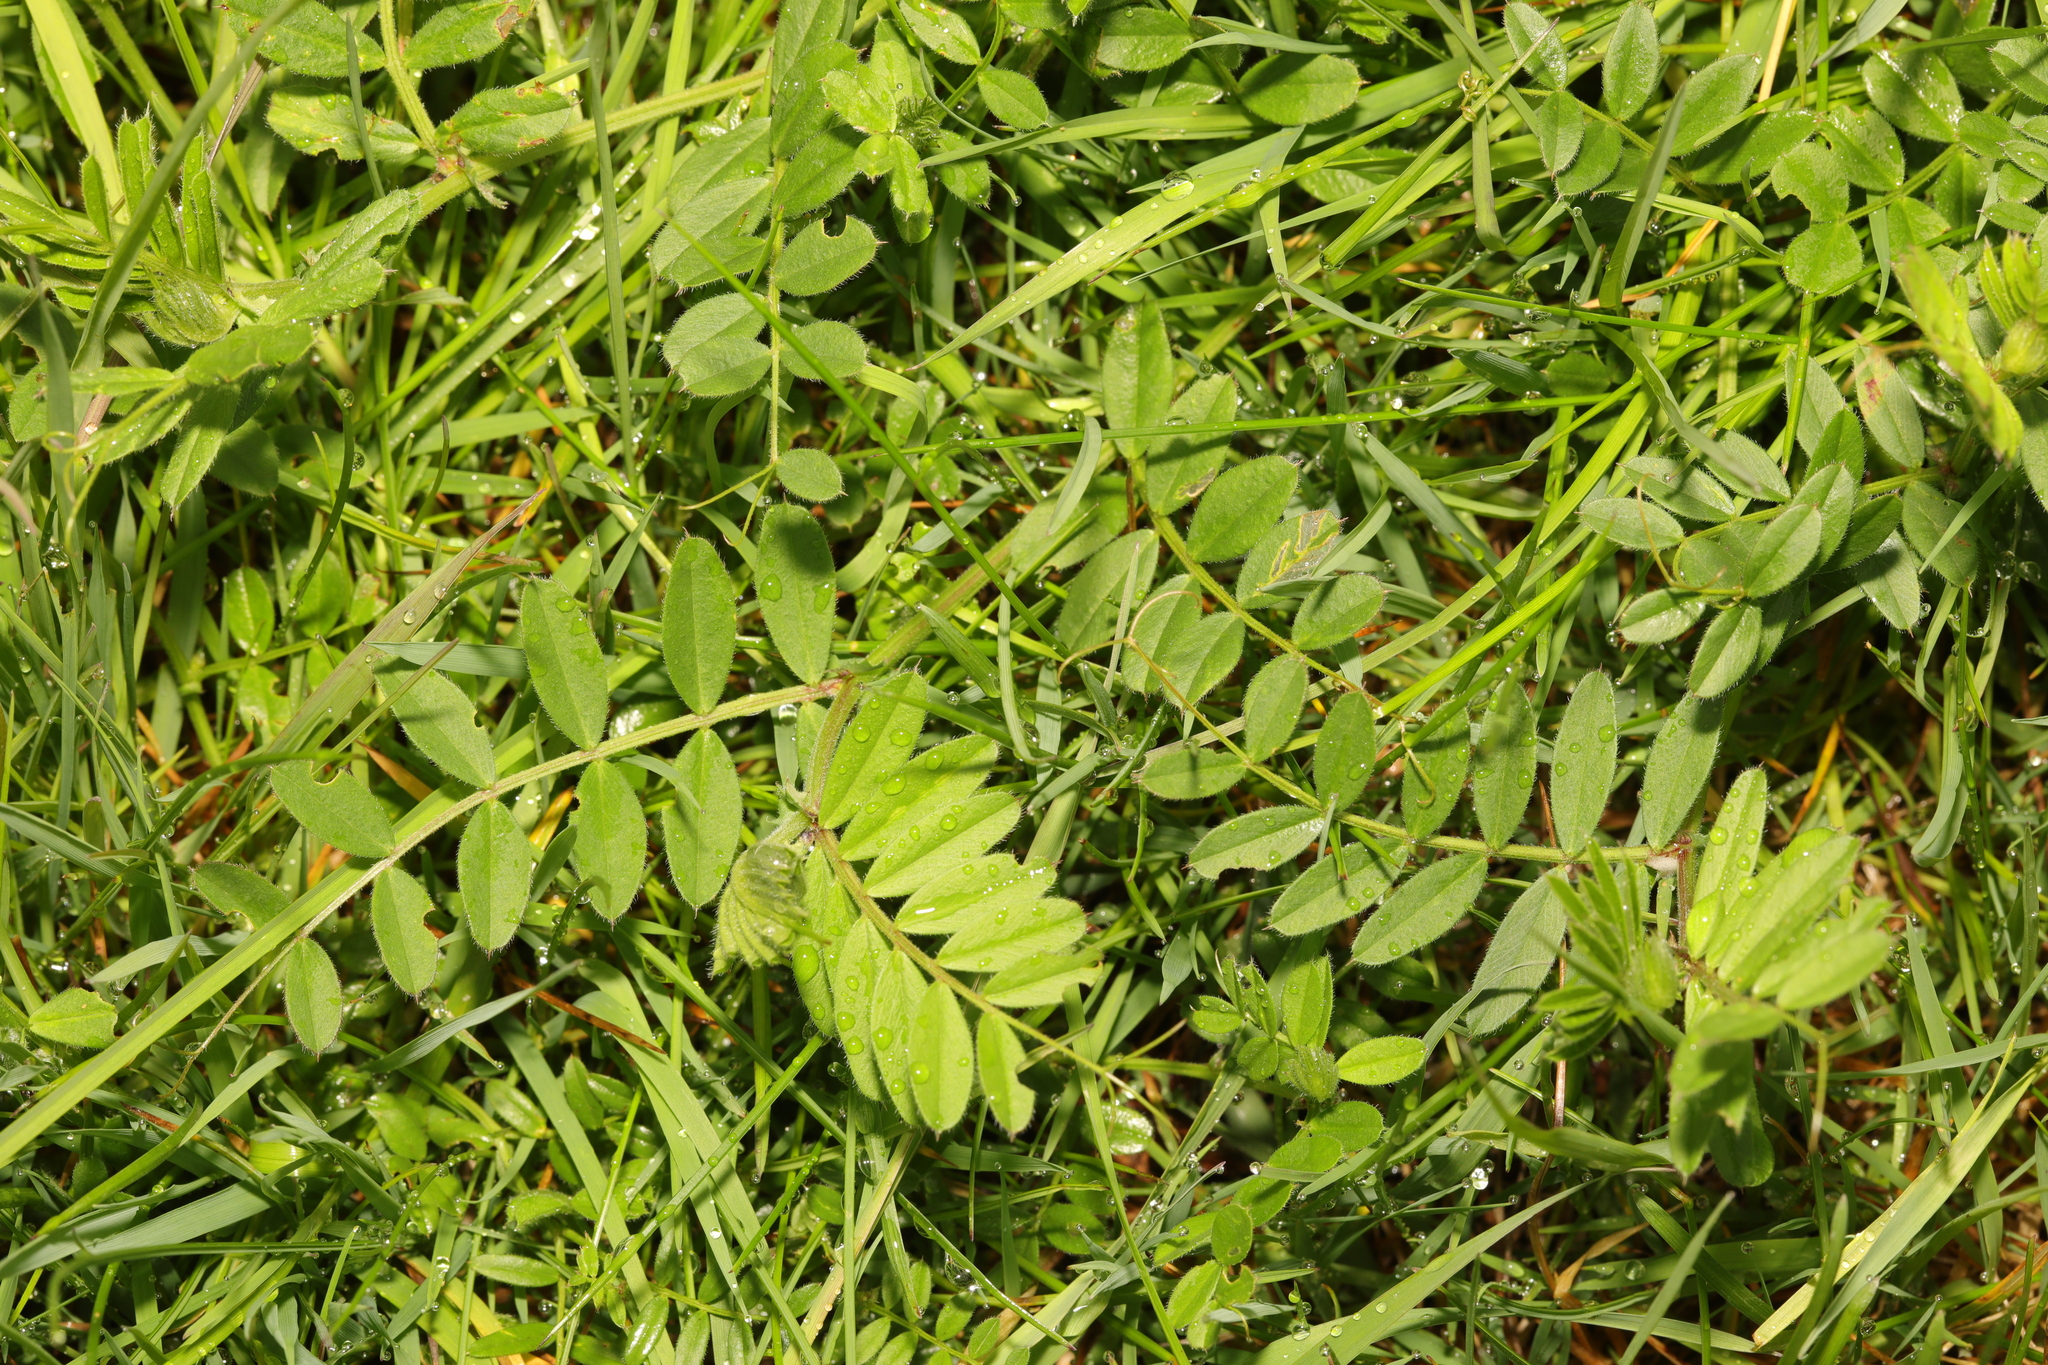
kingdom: Plantae
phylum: Tracheophyta
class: Magnoliopsida
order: Fabales
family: Fabaceae
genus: Vicia
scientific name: Vicia sativa
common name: Garden vetch
